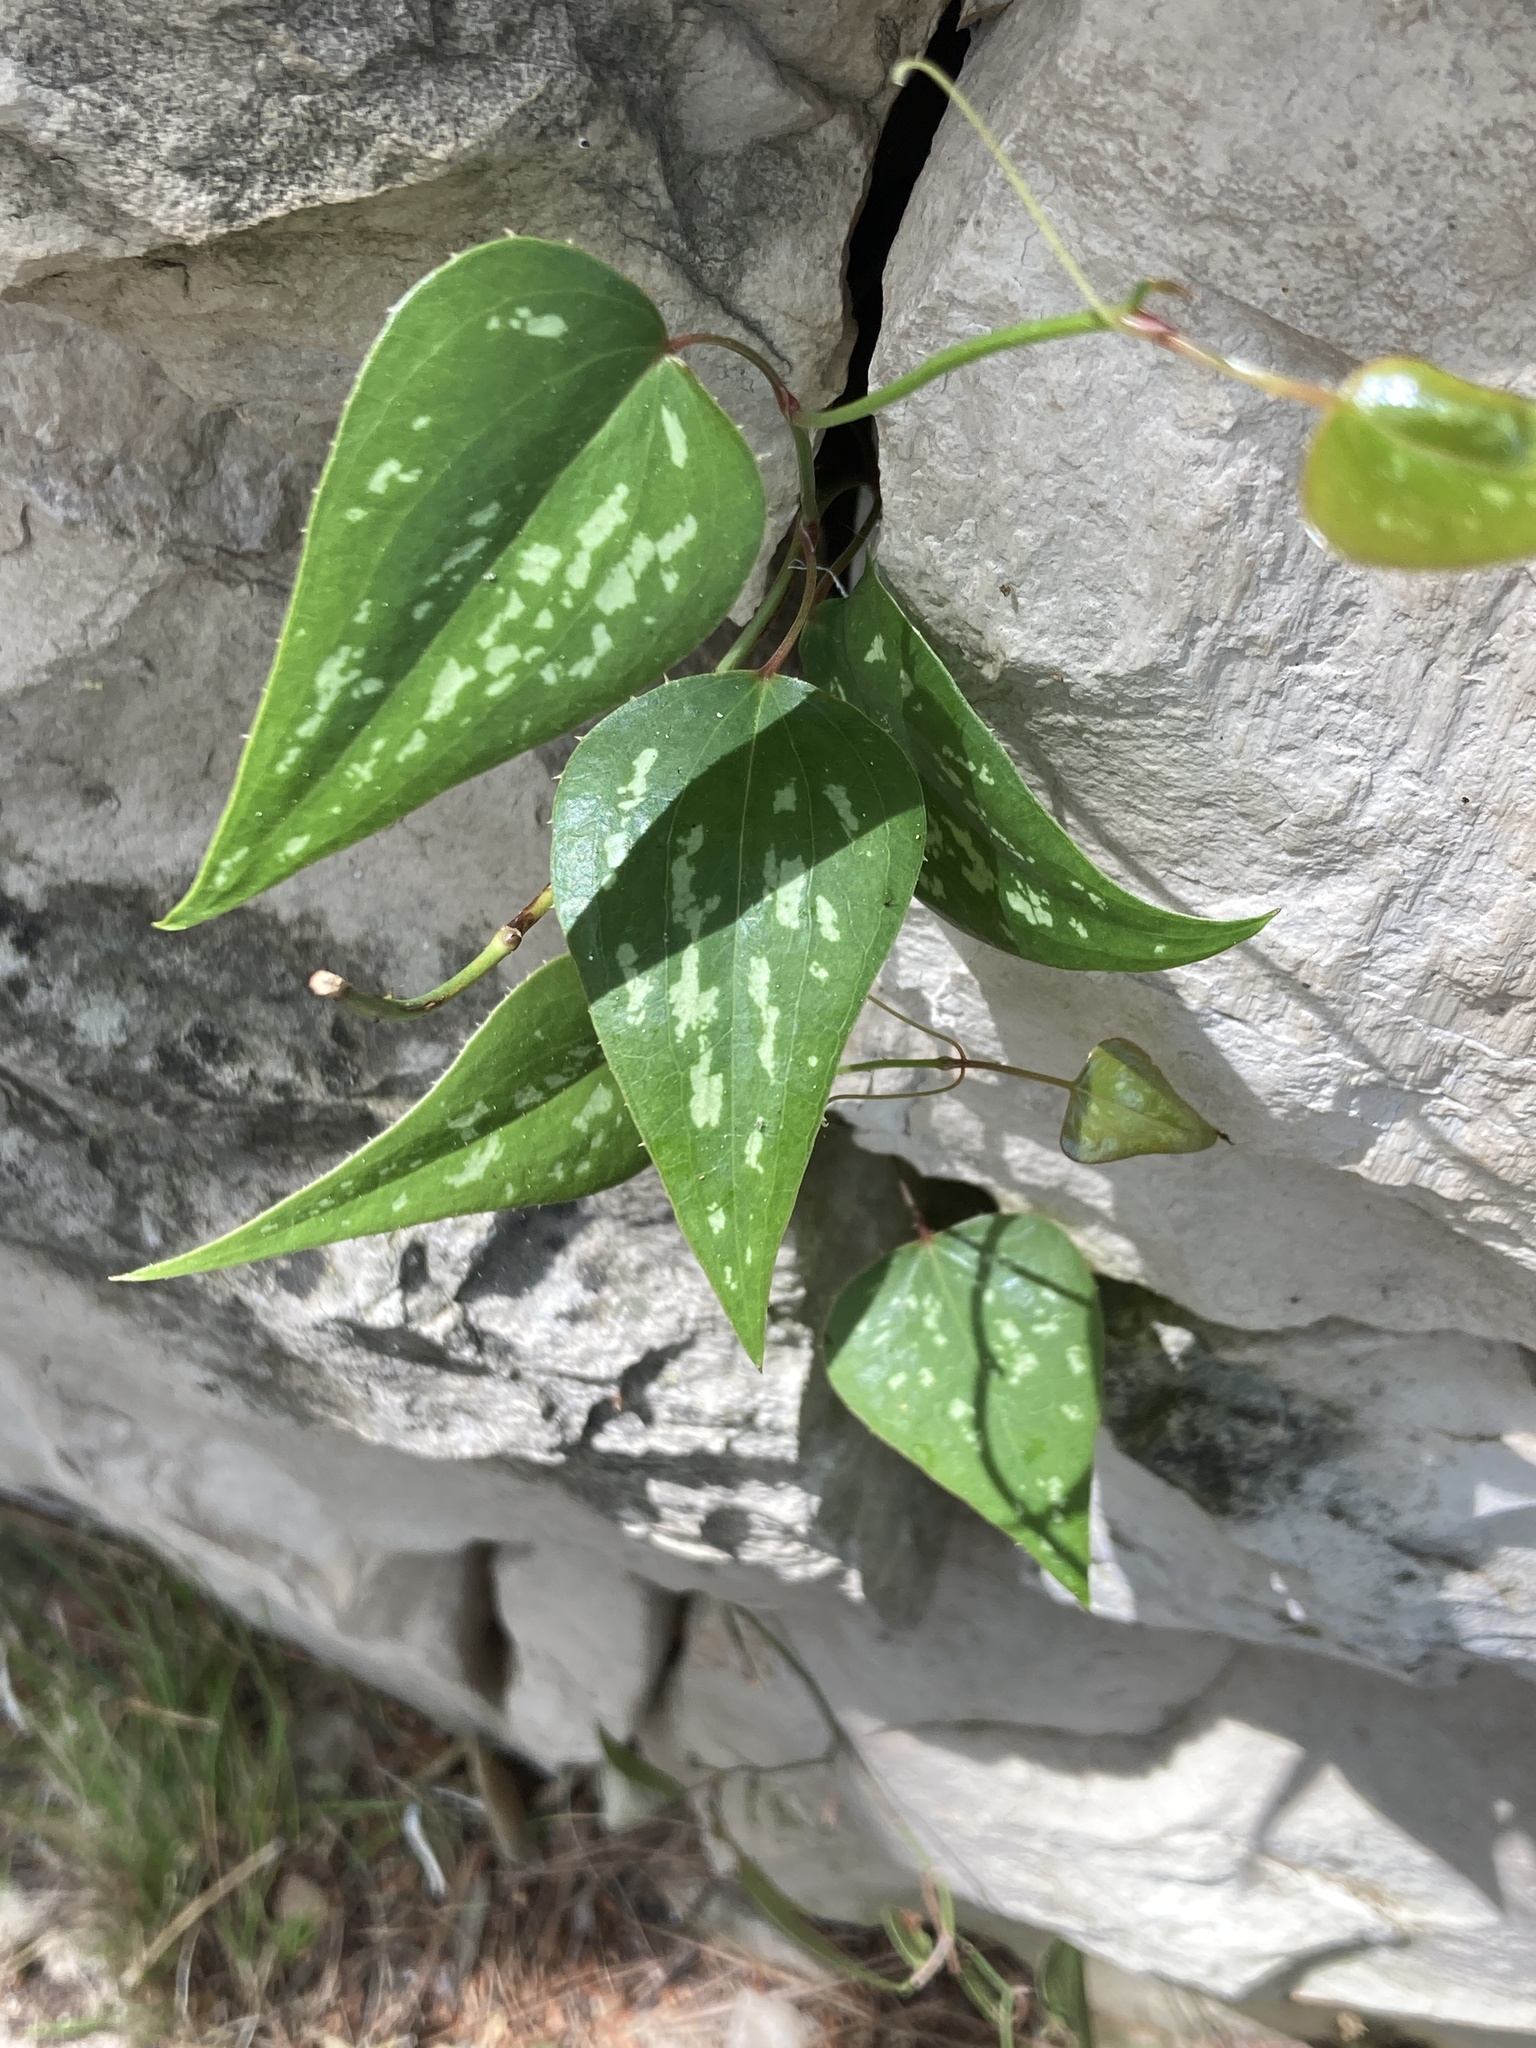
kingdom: Plantae
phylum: Tracheophyta
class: Liliopsida
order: Liliales
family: Smilacaceae
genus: Smilax
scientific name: Smilax aspera
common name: Common smilax
